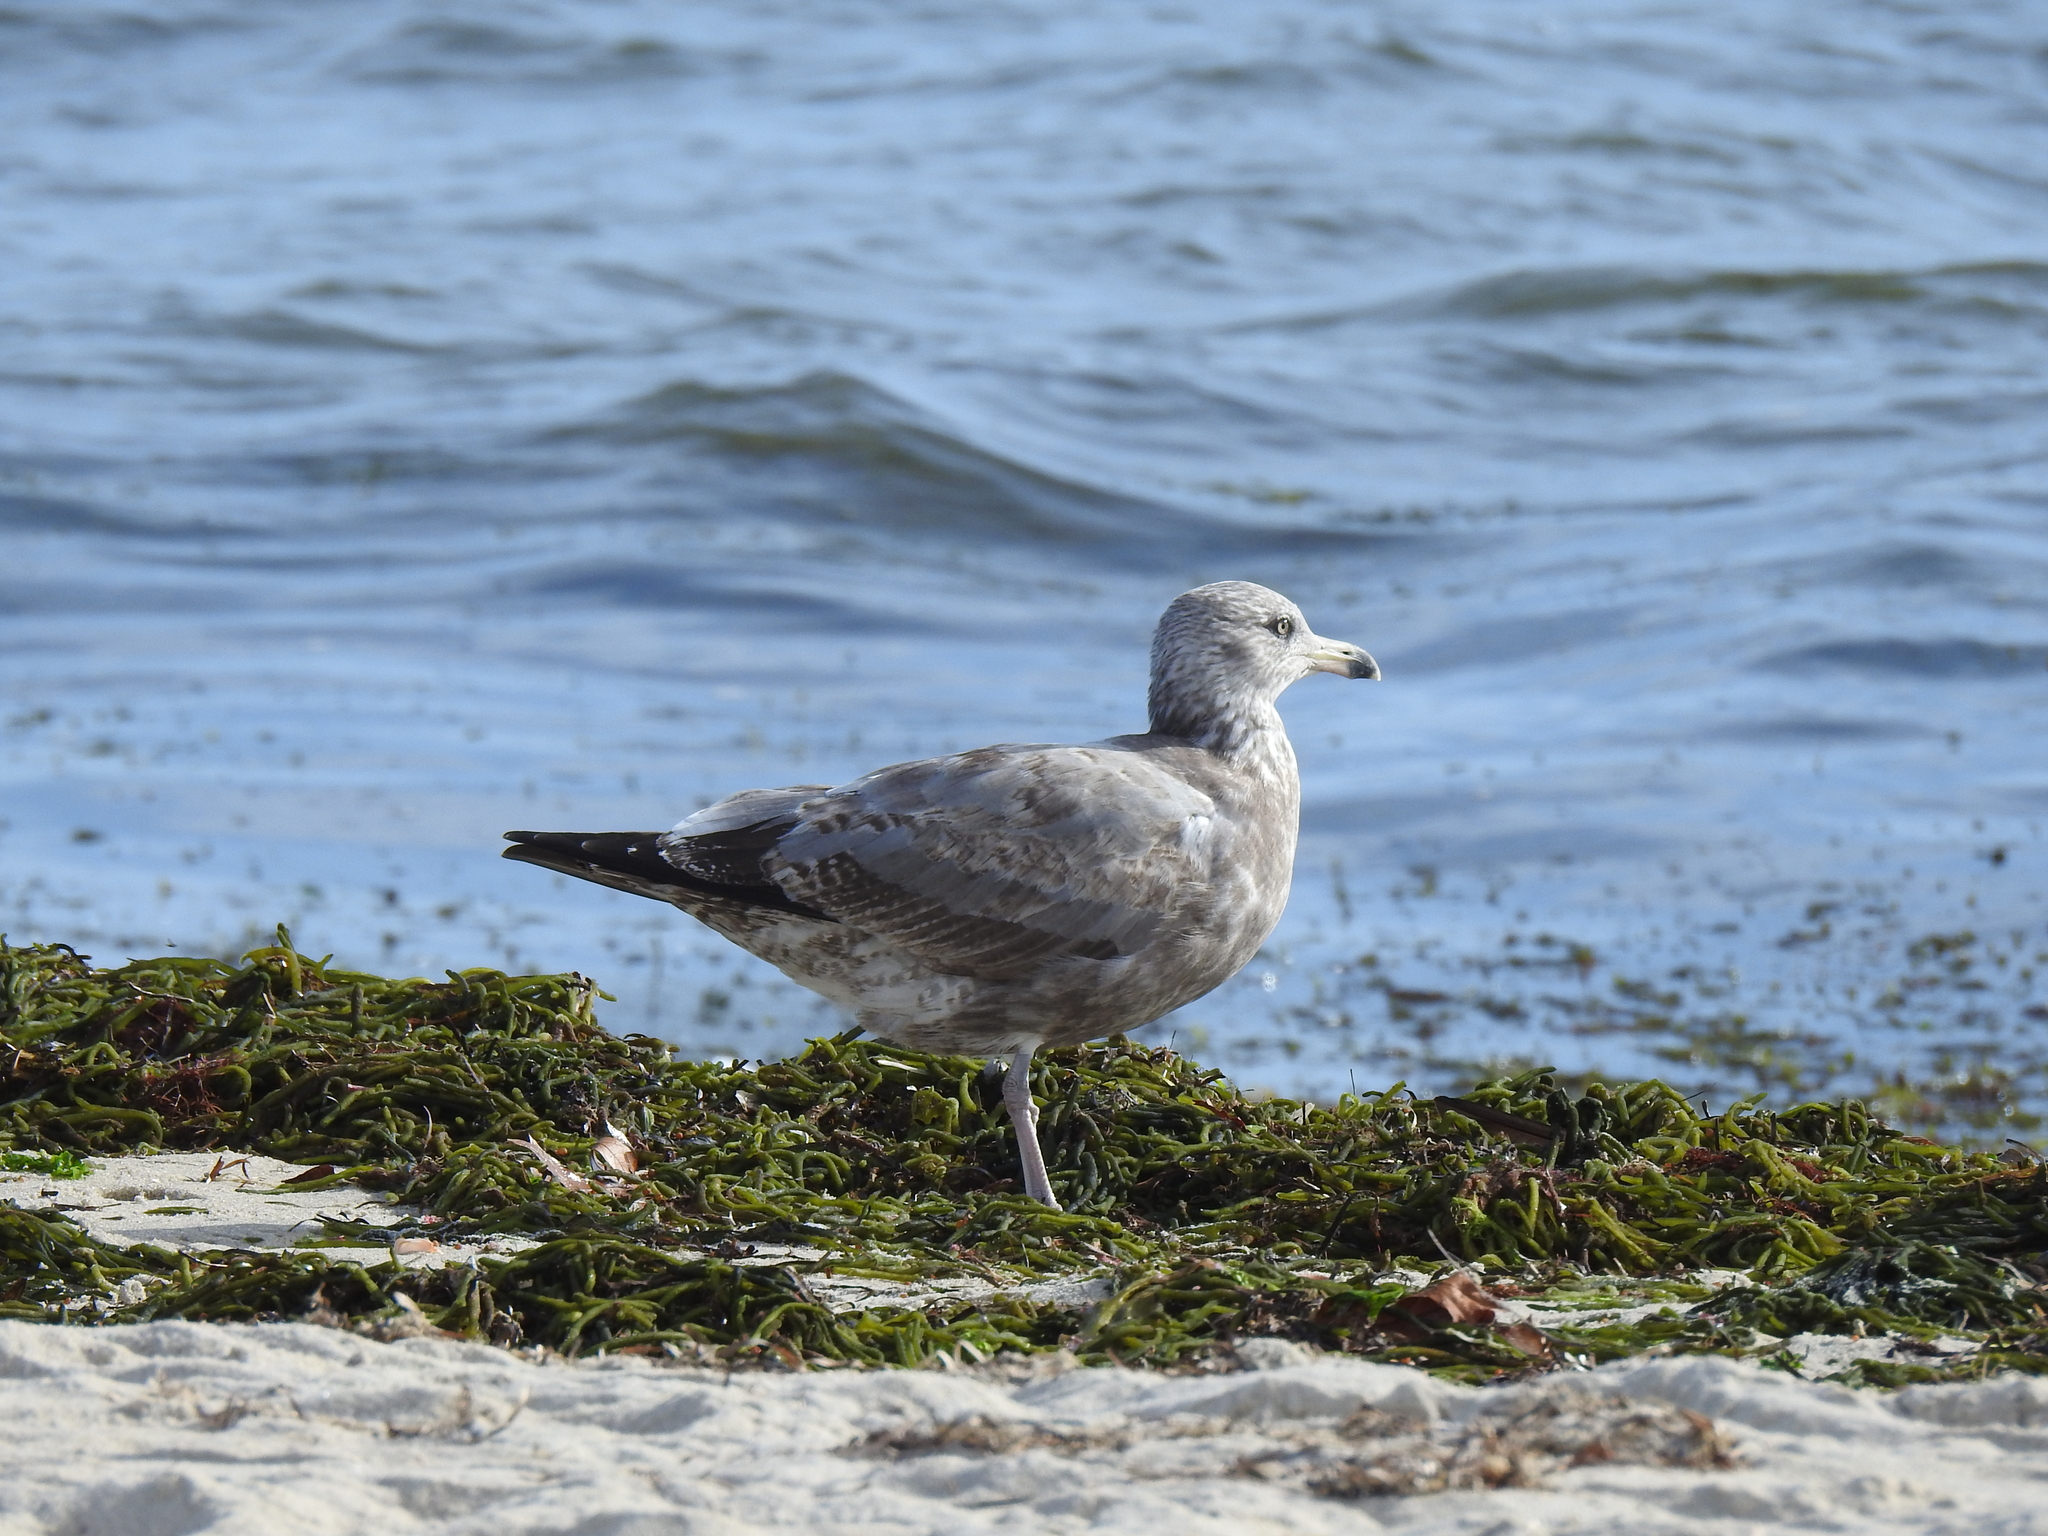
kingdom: Animalia
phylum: Chordata
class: Aves
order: Charadriiformes
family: Laridae
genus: Larus
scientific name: Larus argentatus
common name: Herring gull
